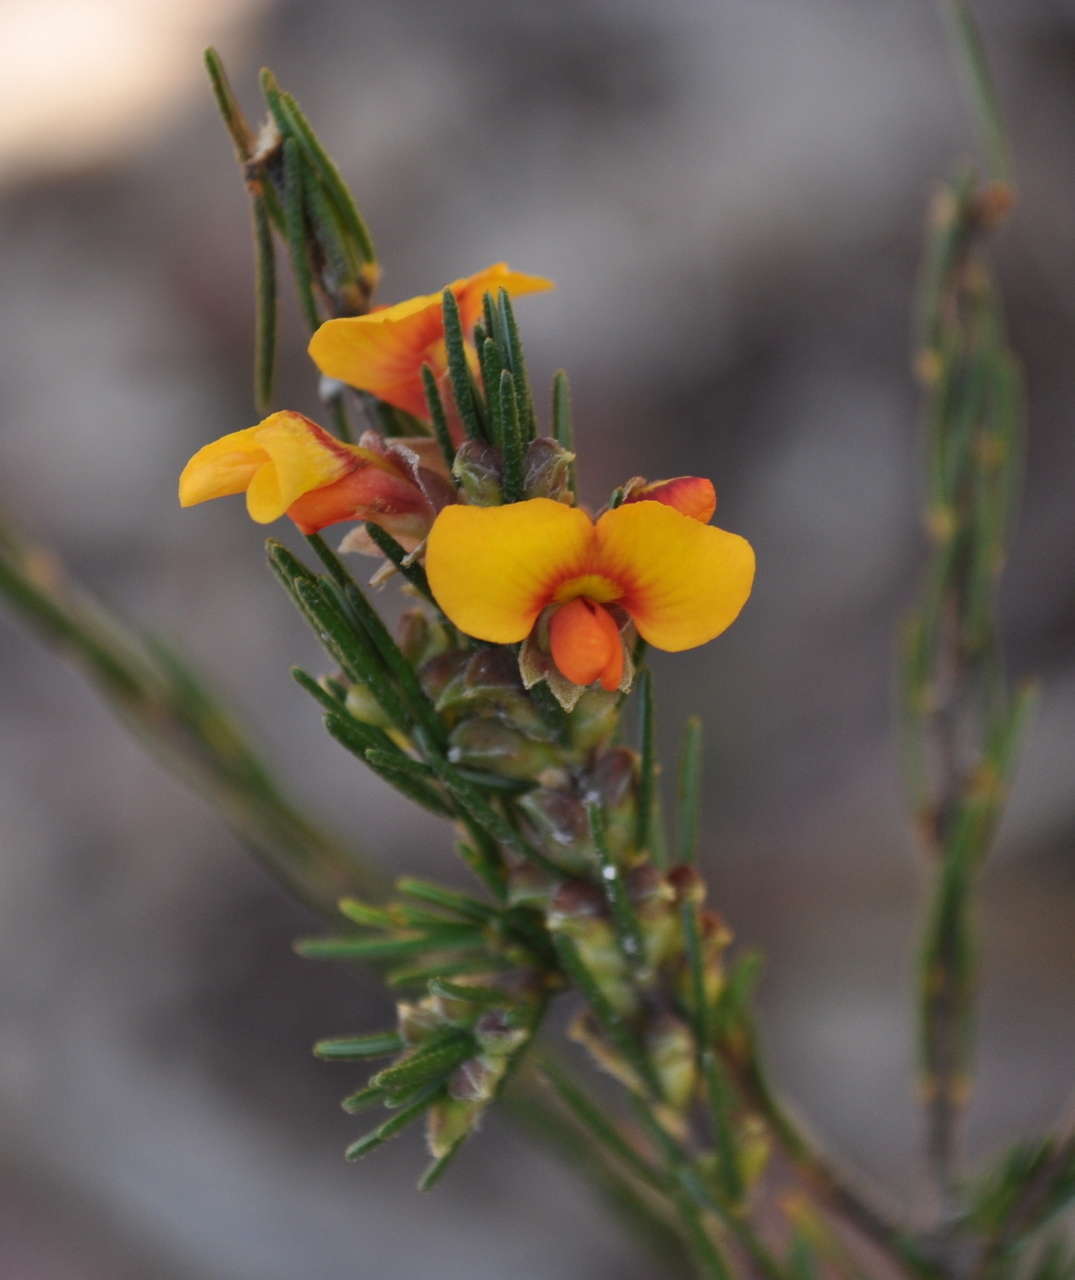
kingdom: Plantae
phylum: Tracheophyta
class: Magnoliopsida
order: Fabales
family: Fabaceae
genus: Dillwynia
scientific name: Dillwynia sericea
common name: Showy parrot-pea
